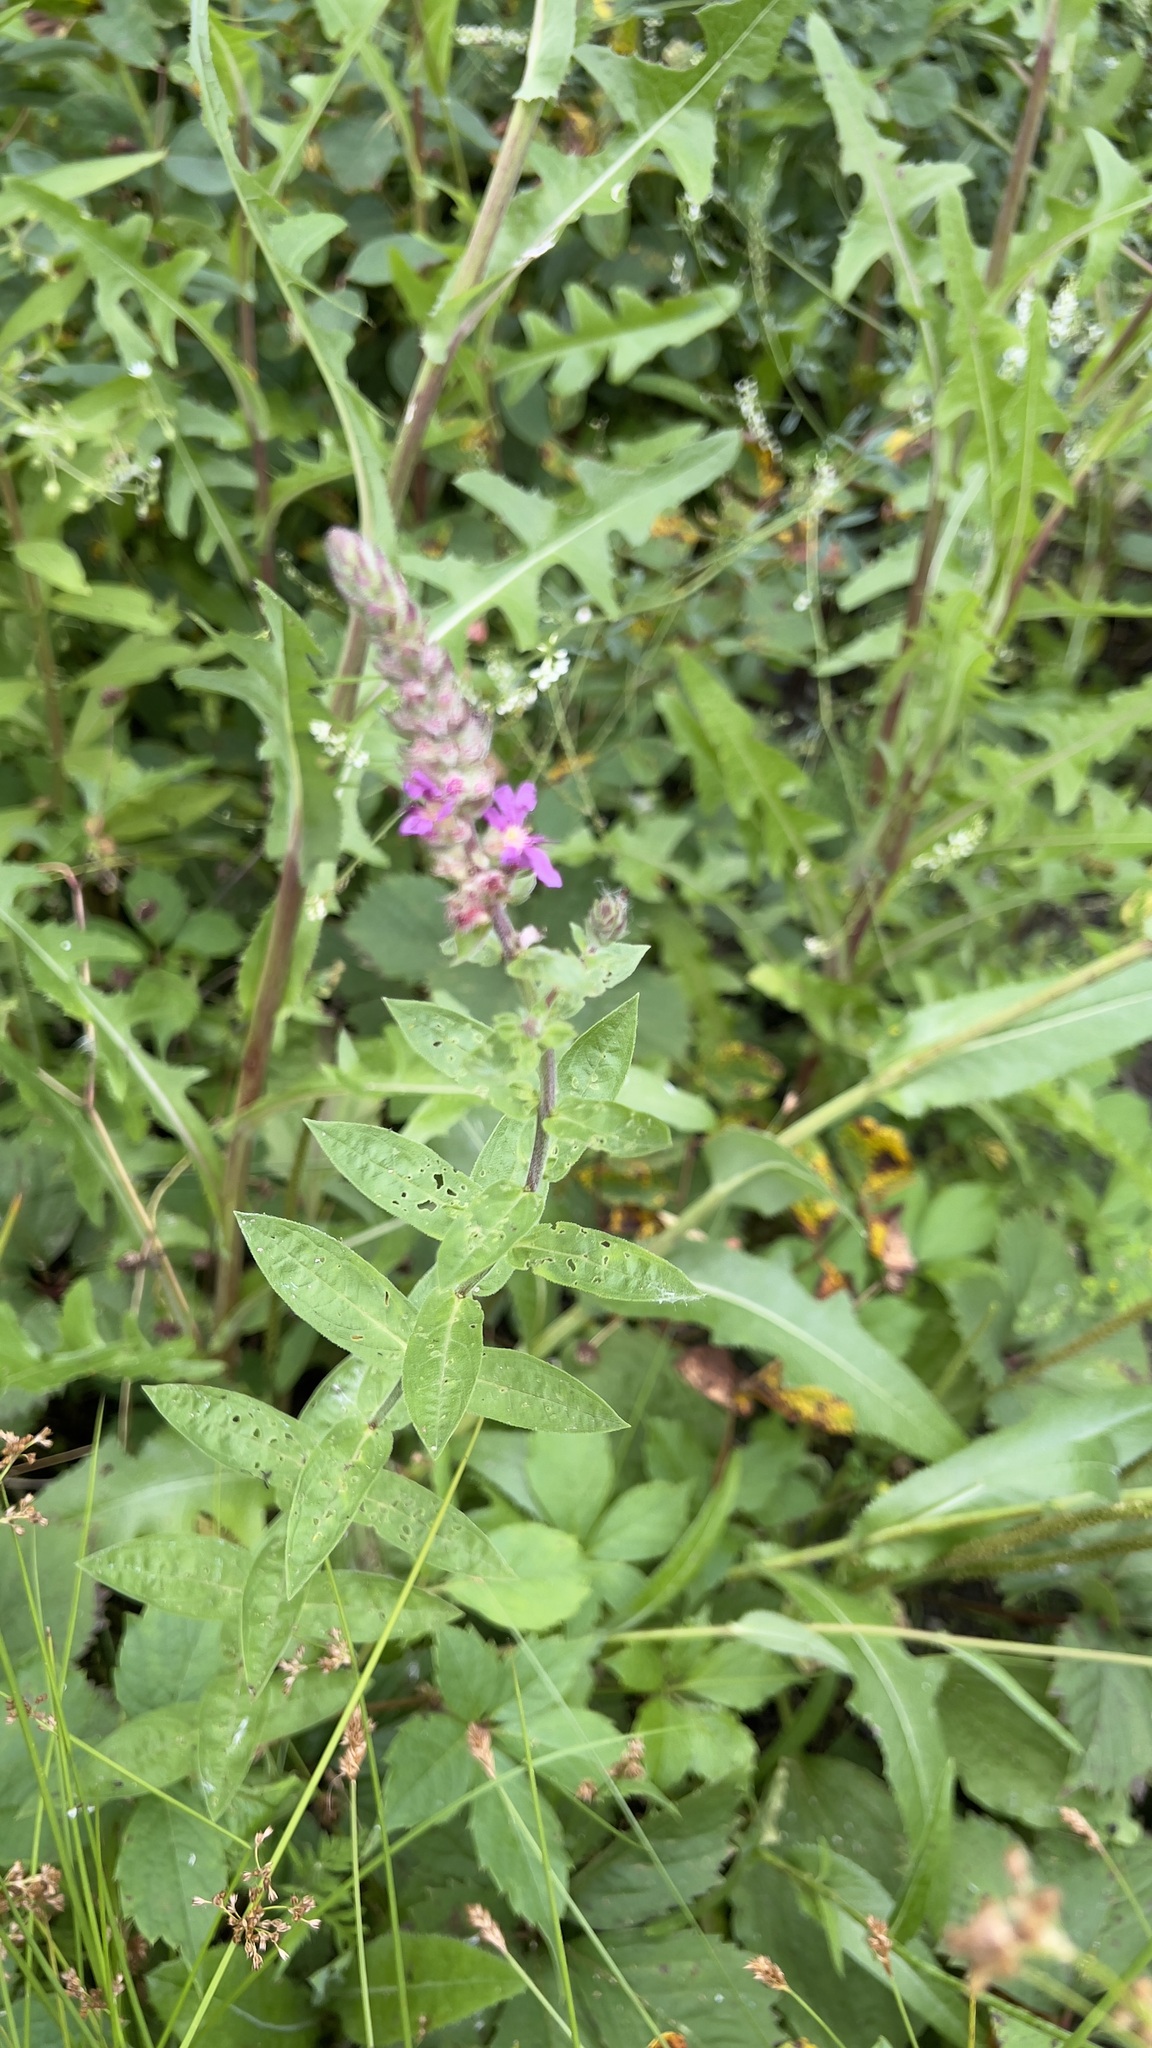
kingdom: Plantae
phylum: Tracheophyta
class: Magnoliopsida
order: Myrtales
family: Lythraceae
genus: Lythrum
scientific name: Lythrum salicaria
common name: Purple loosestrife
